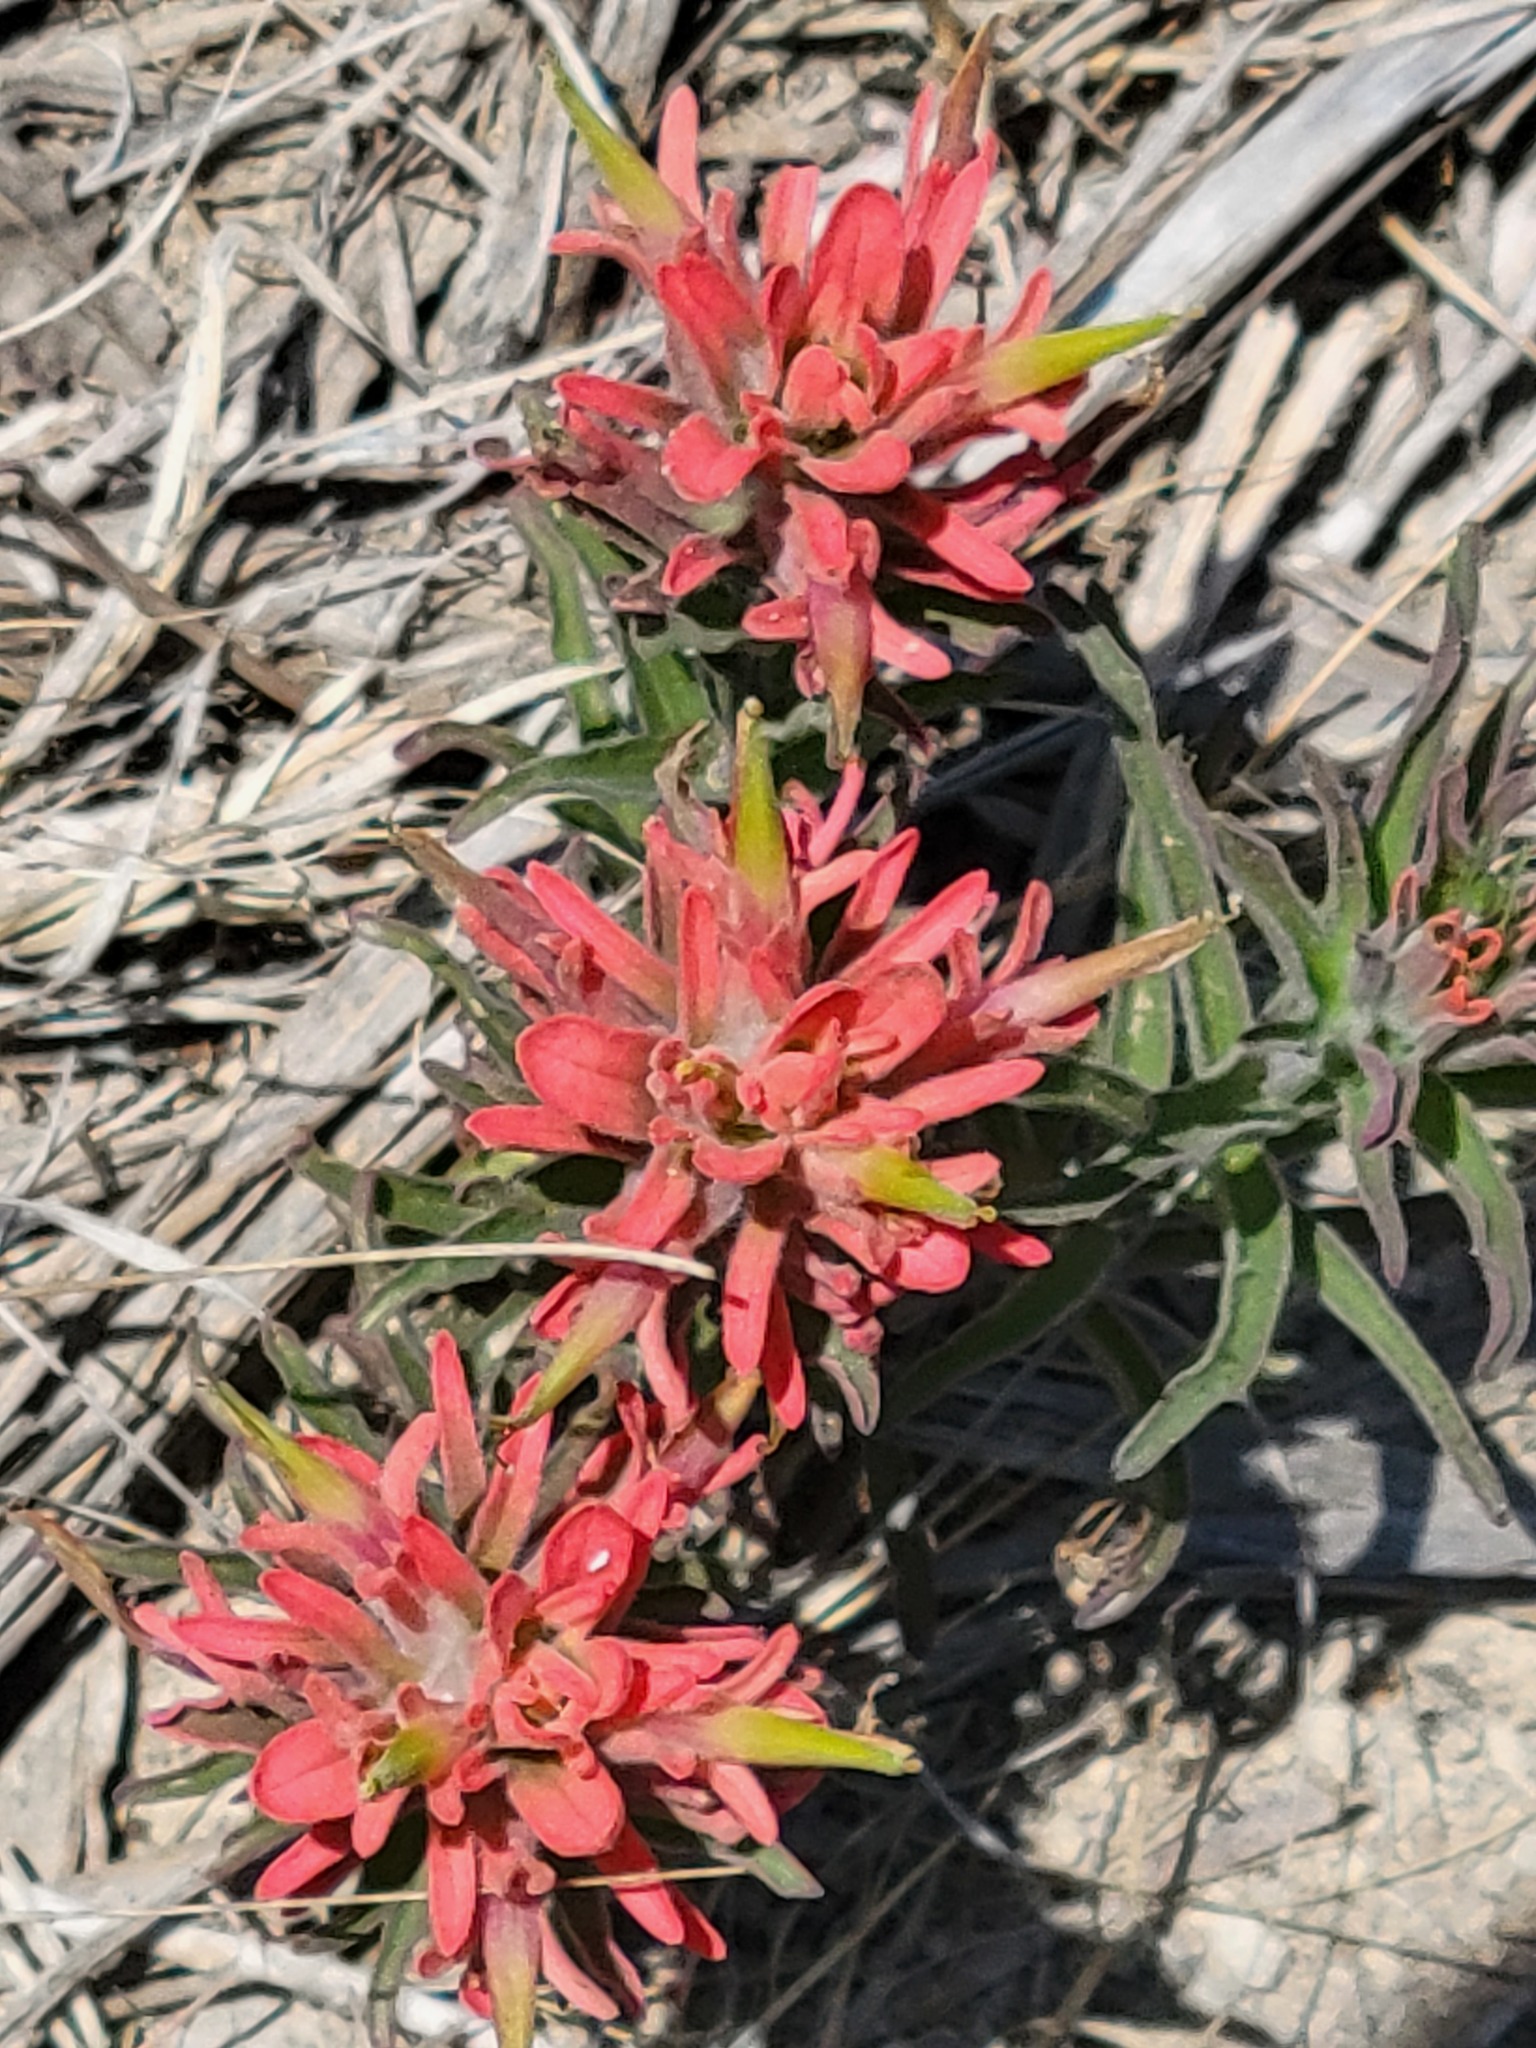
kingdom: Plantae
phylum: Tracheophyta
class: Magnoliopsida
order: Lamiales
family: Orobanchaceae
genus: Castilleja
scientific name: Castilleja lindheimeri
